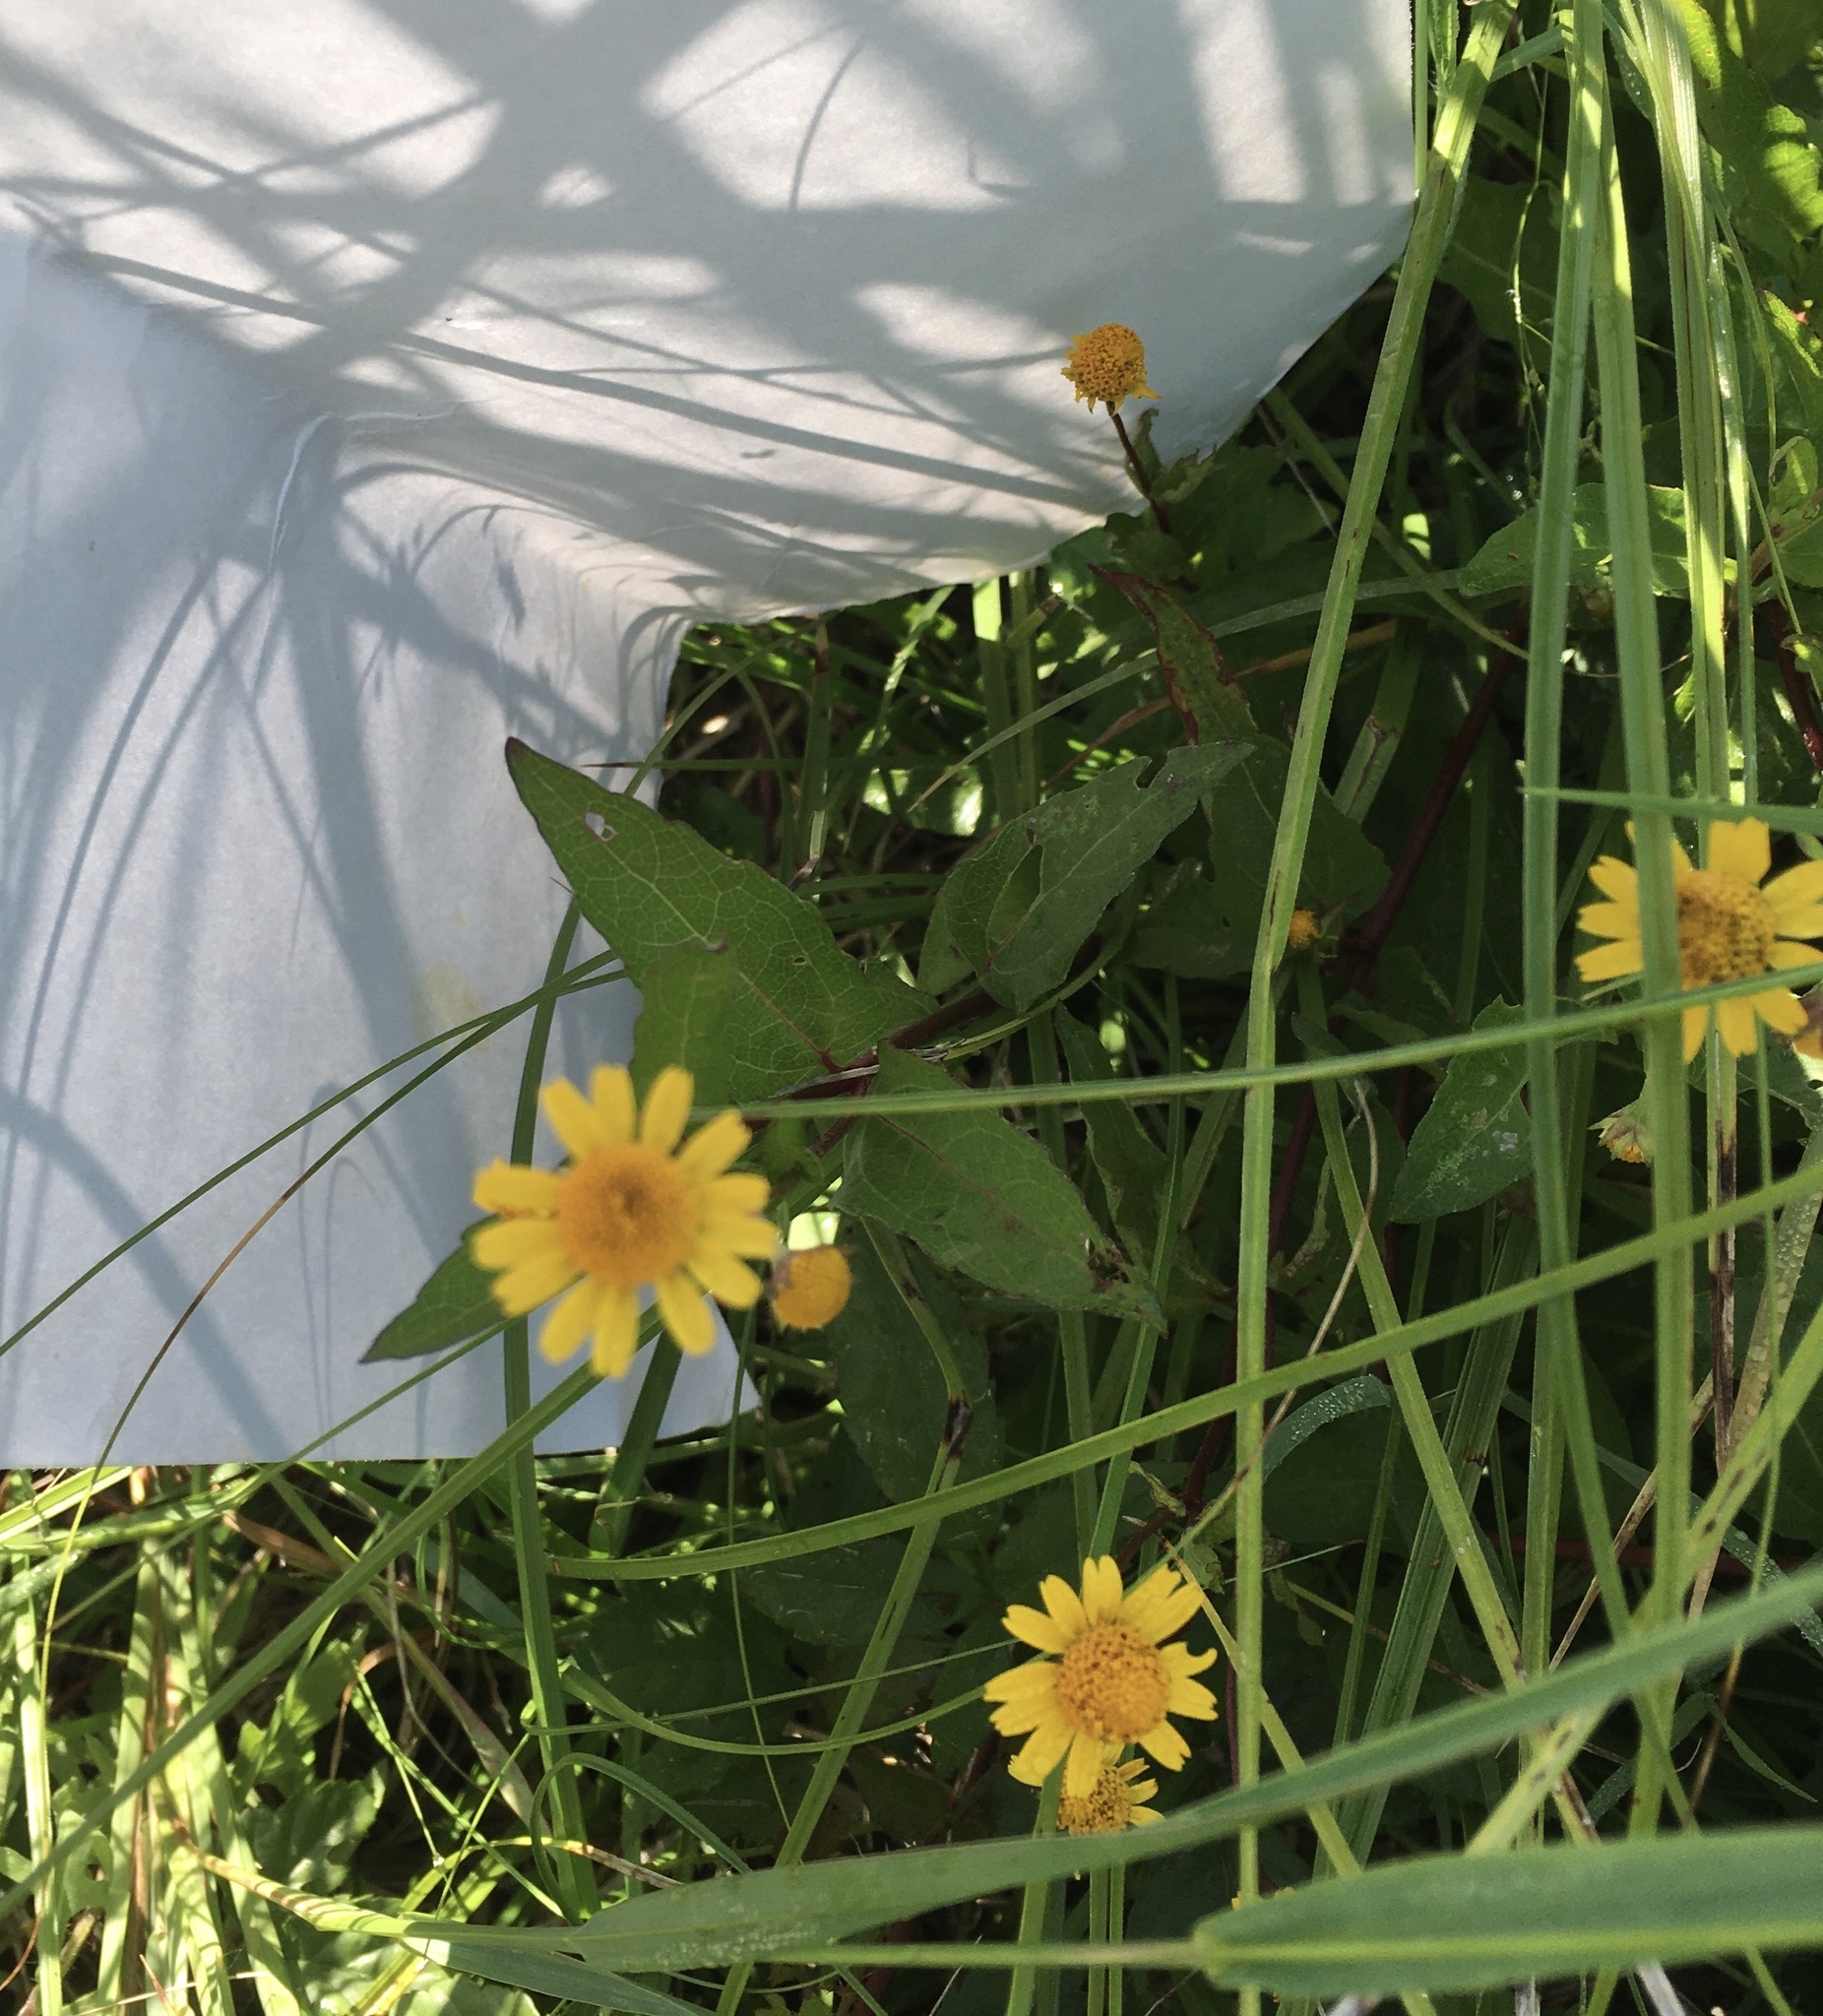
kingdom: Plantae
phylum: Tracheophyta
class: Magnoliopsida
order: Asterales
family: Asteraceae
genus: Acmella
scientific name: Acmella repens
